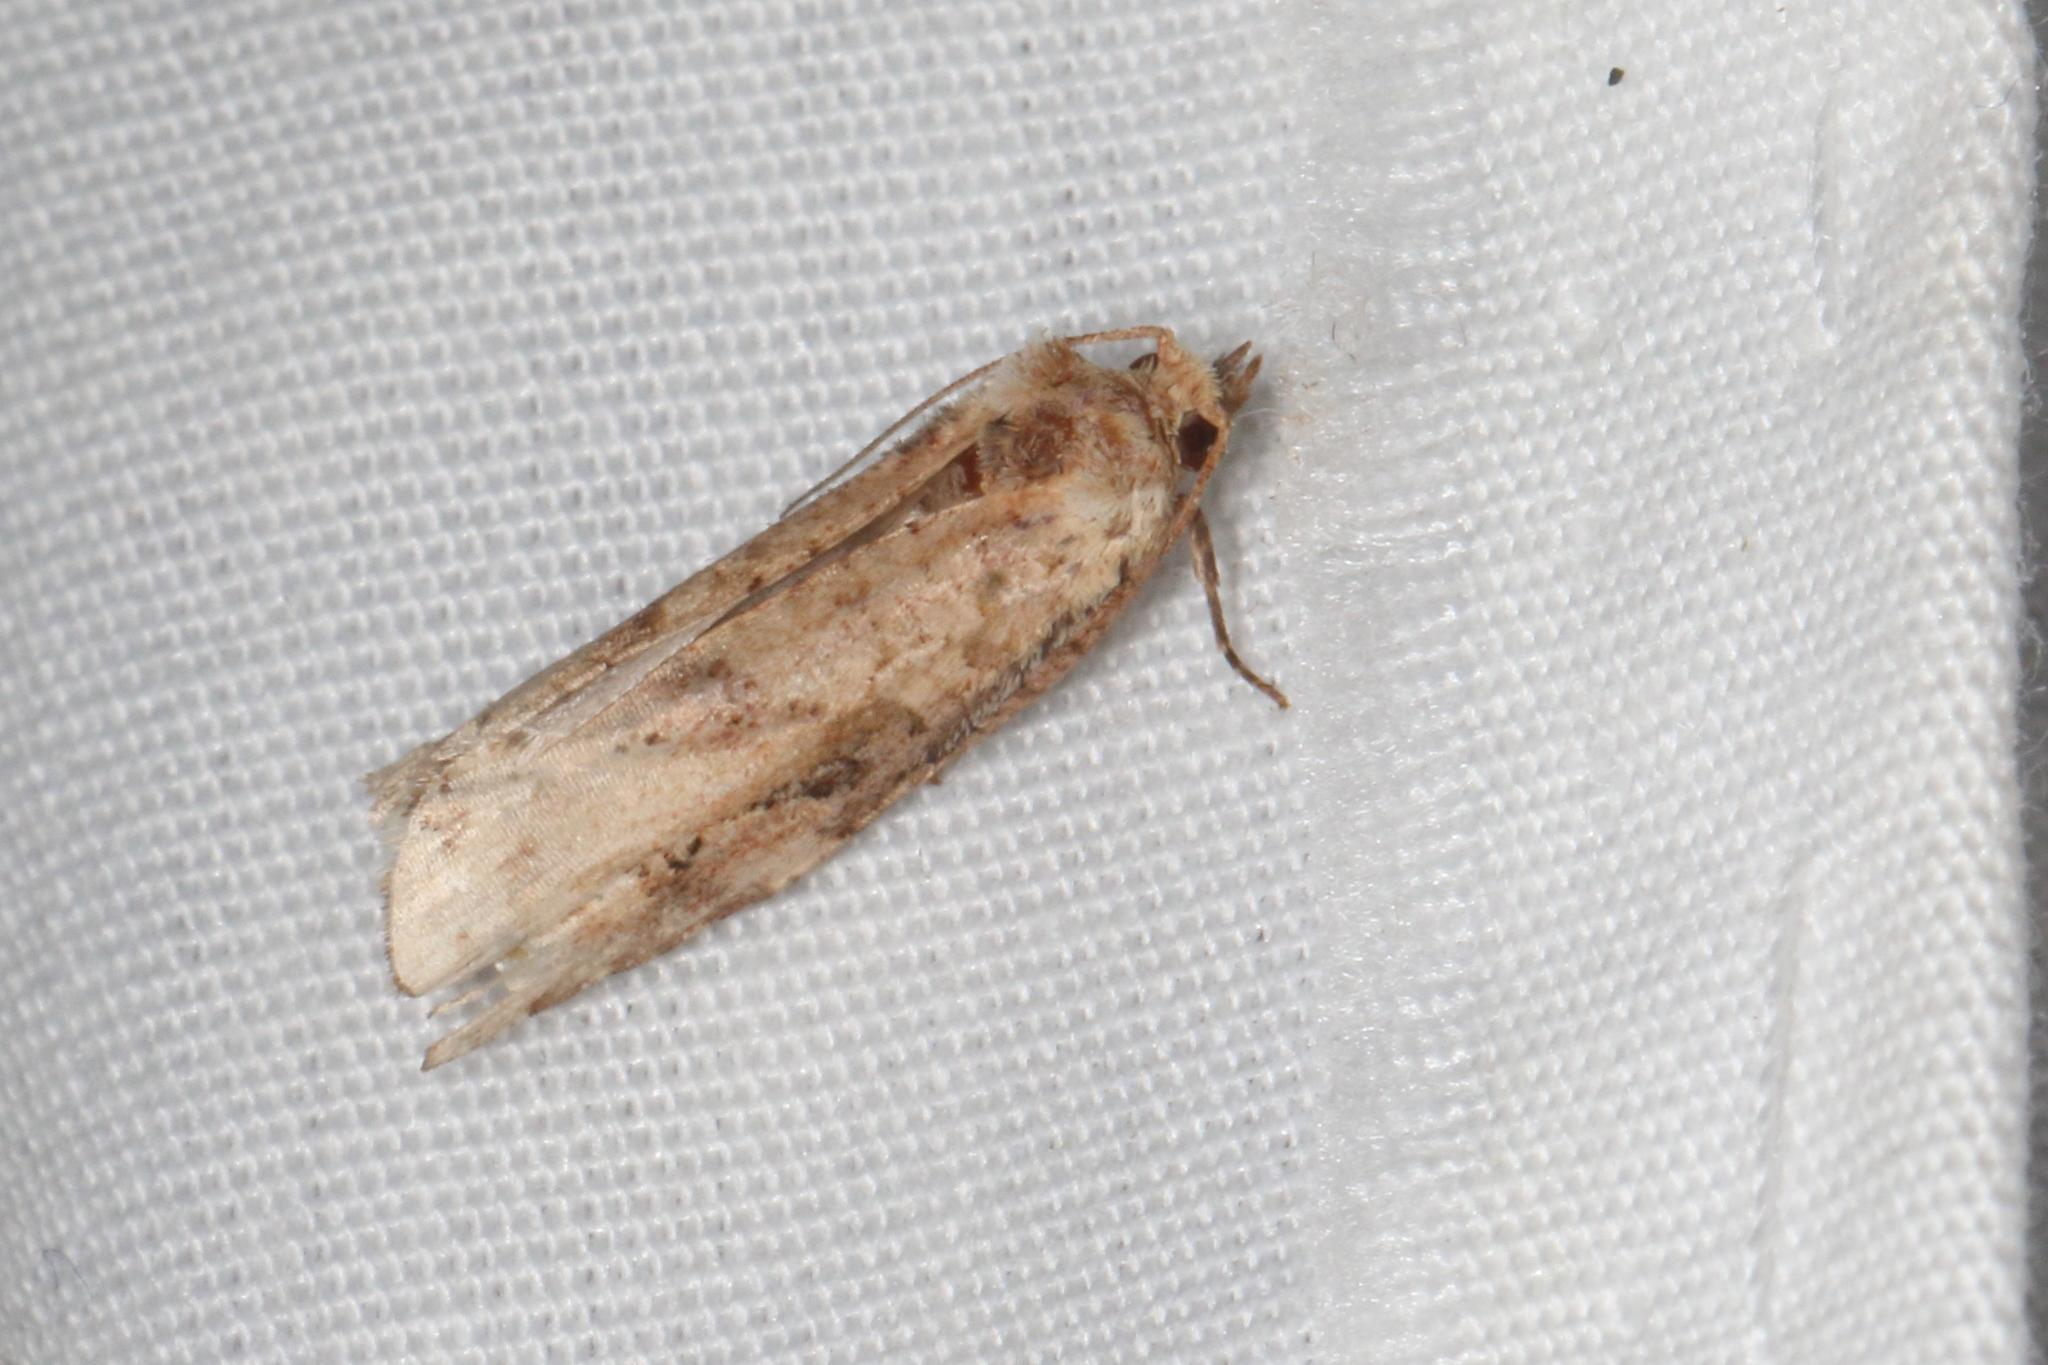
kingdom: Animalia
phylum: Arthropoda
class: Insecta
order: Lepidoptera
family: Tortricidae
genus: Epalxiphora
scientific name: Epalxiphora axenana
